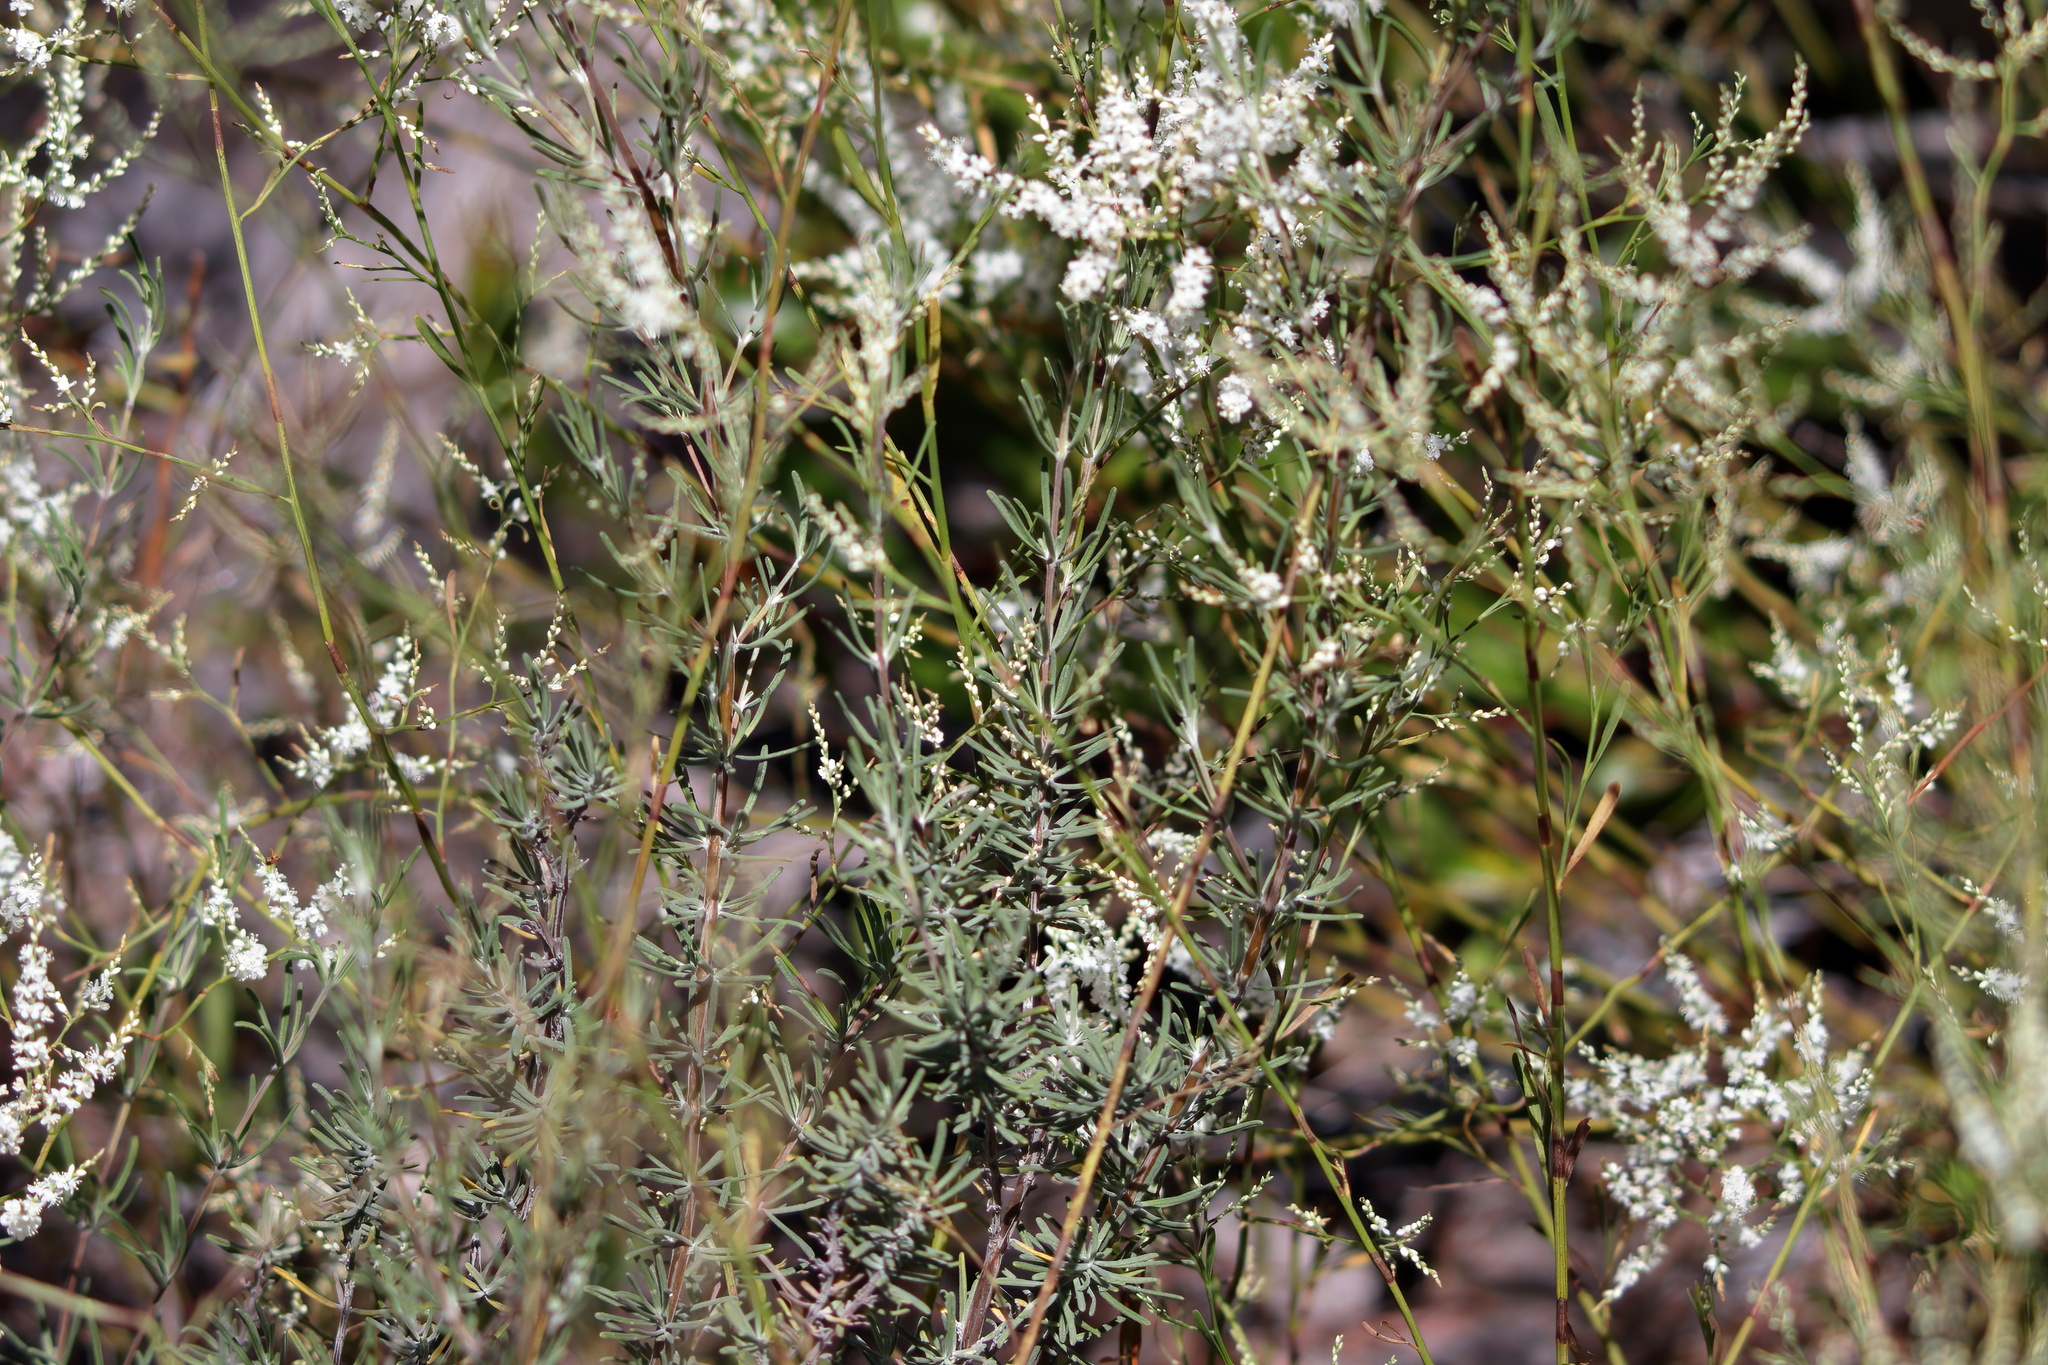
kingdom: Plantae
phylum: Tracheophyta
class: Magnoliopsida
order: Caryophyllales
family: Polygonaceae
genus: Polygonella
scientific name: Polygonella polygama
